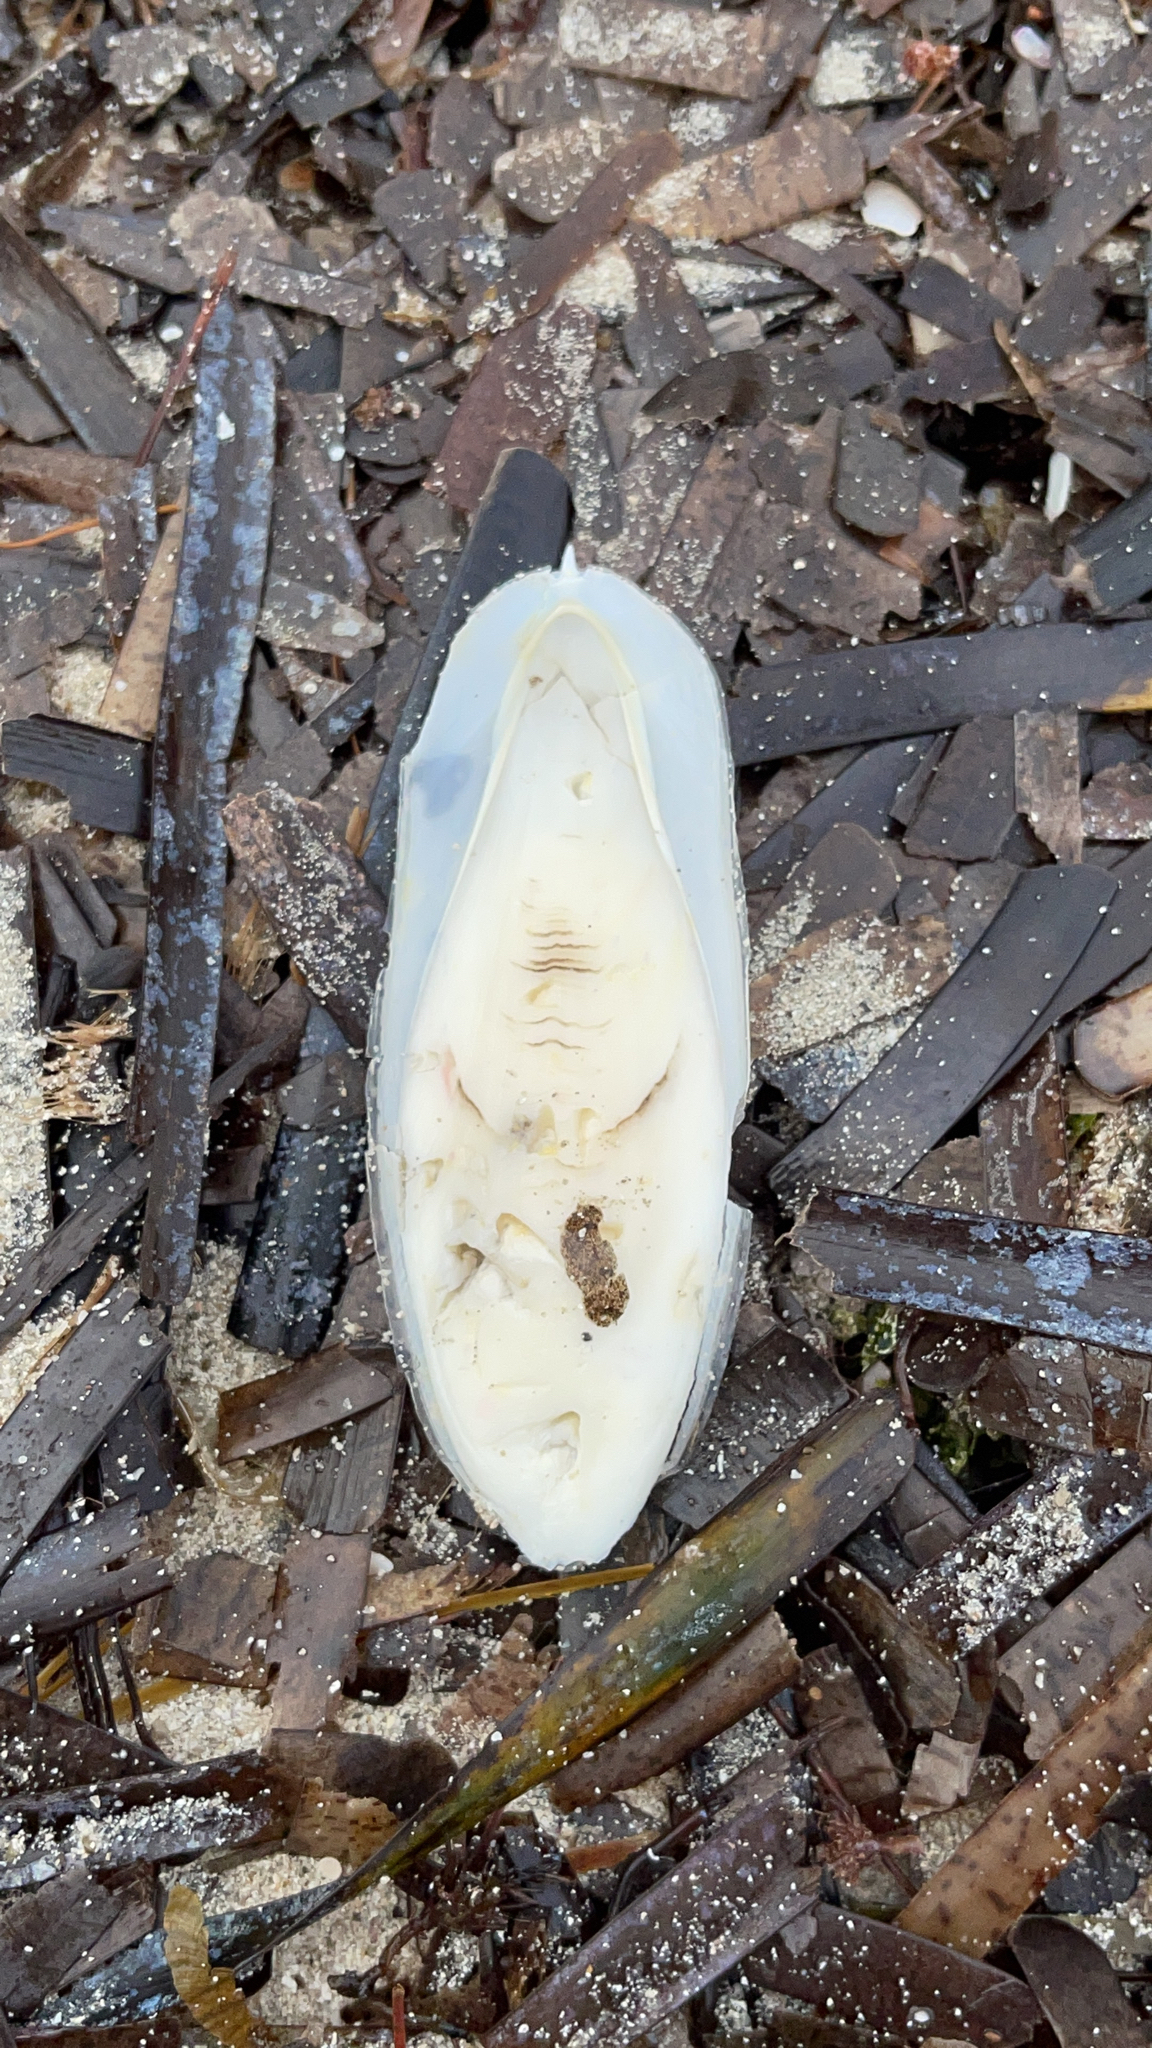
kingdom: Animalia
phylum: Mollusca
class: Cephalopoda
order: Sepiida
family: Sepiidae
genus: Sepia
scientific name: Sepia officinalis
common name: Common cuttlefish
